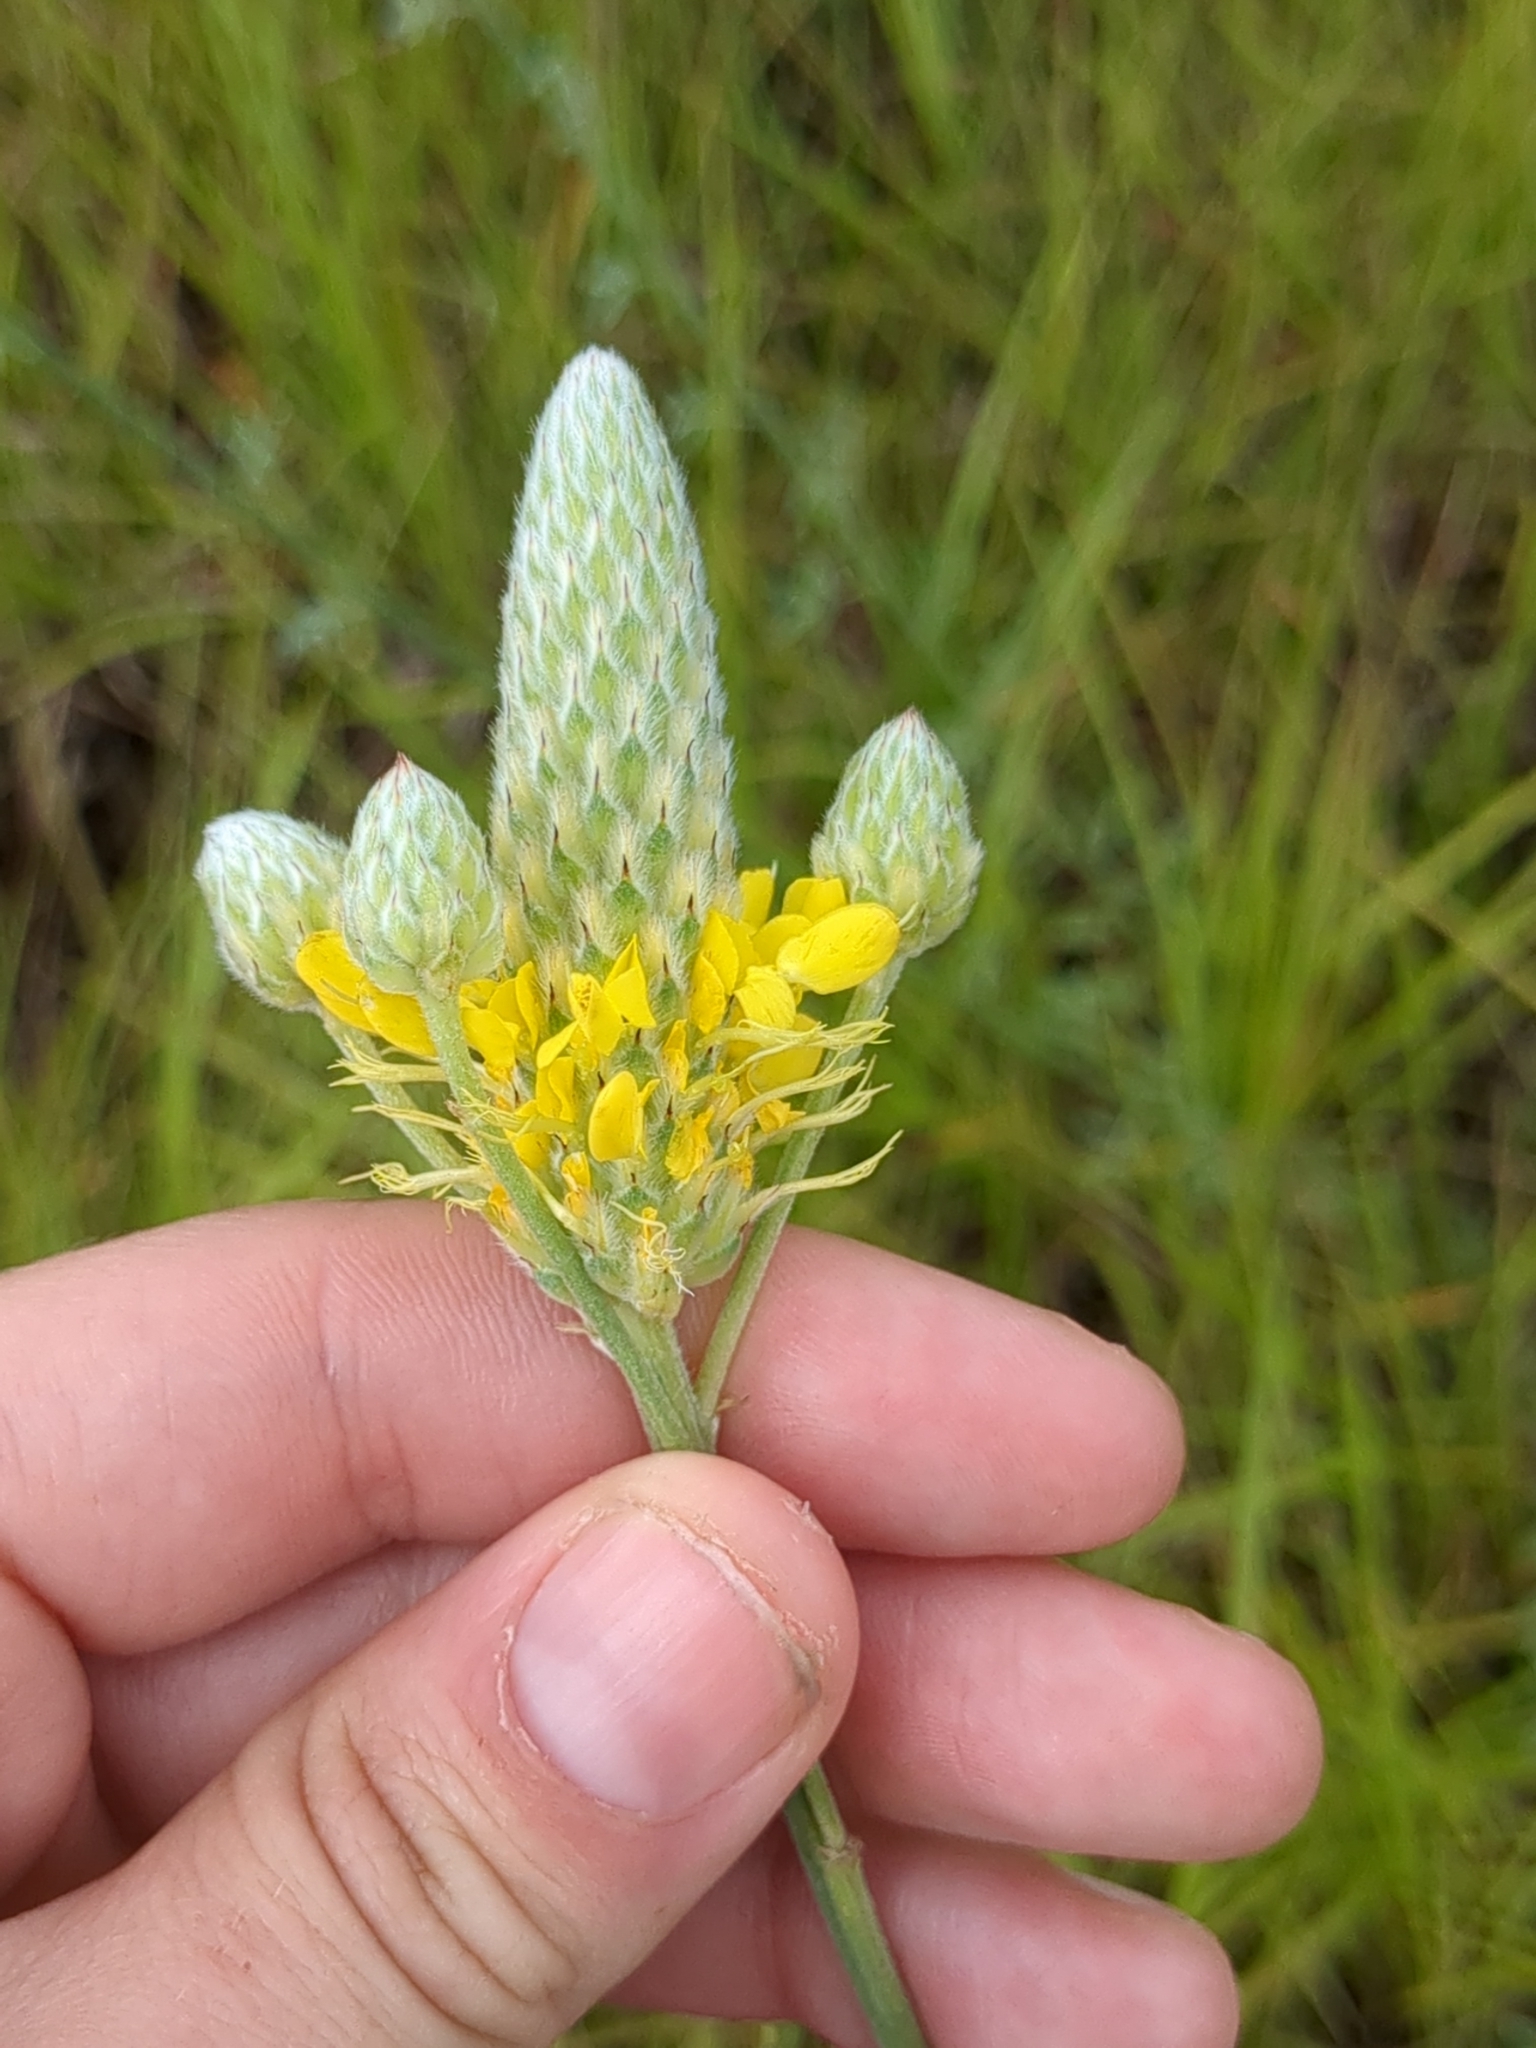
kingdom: Plantae
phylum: Tracheophyta
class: Magnoliopsida
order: Fabales
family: Fabaceae
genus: Dalea
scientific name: Dalea aurea
